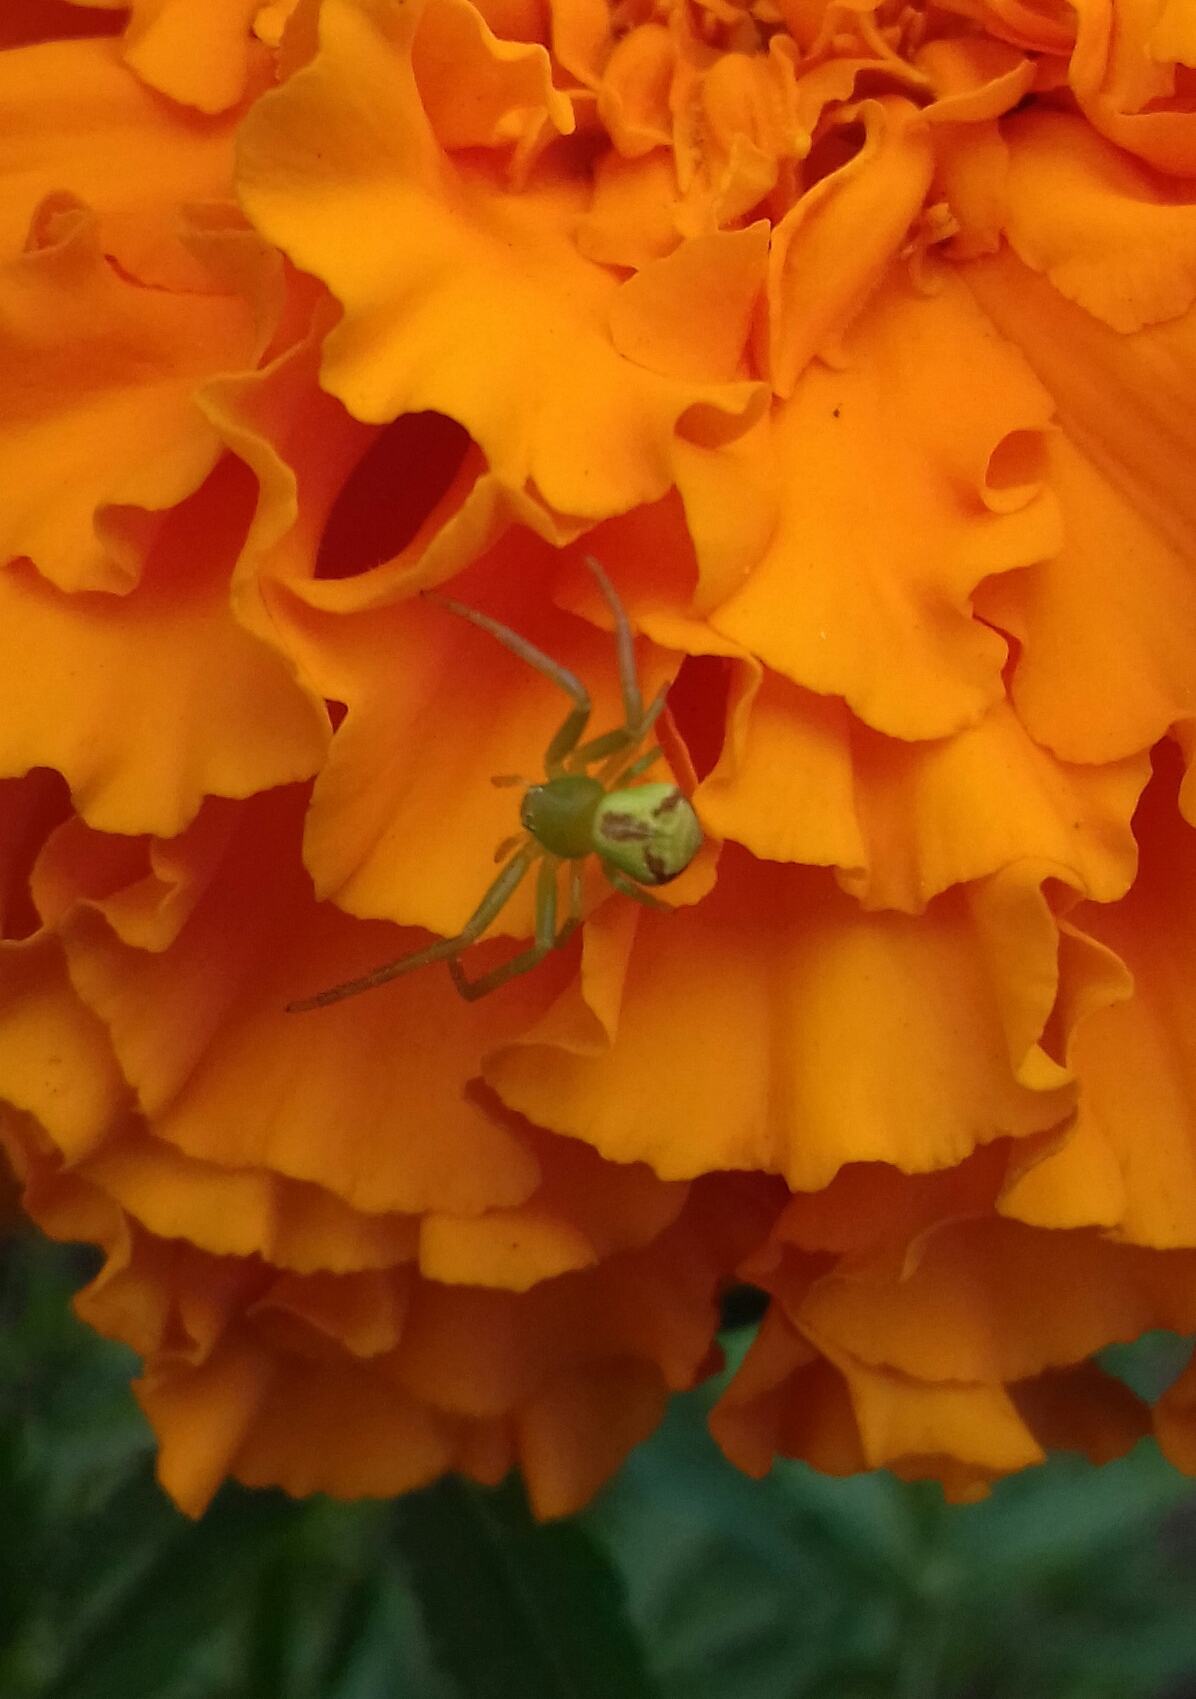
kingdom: Animalia
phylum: Arthropoda
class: Arachnida
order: Araneae
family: Thomisidae
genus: Ebrechtella
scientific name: Ebrechtella tricuspidata
